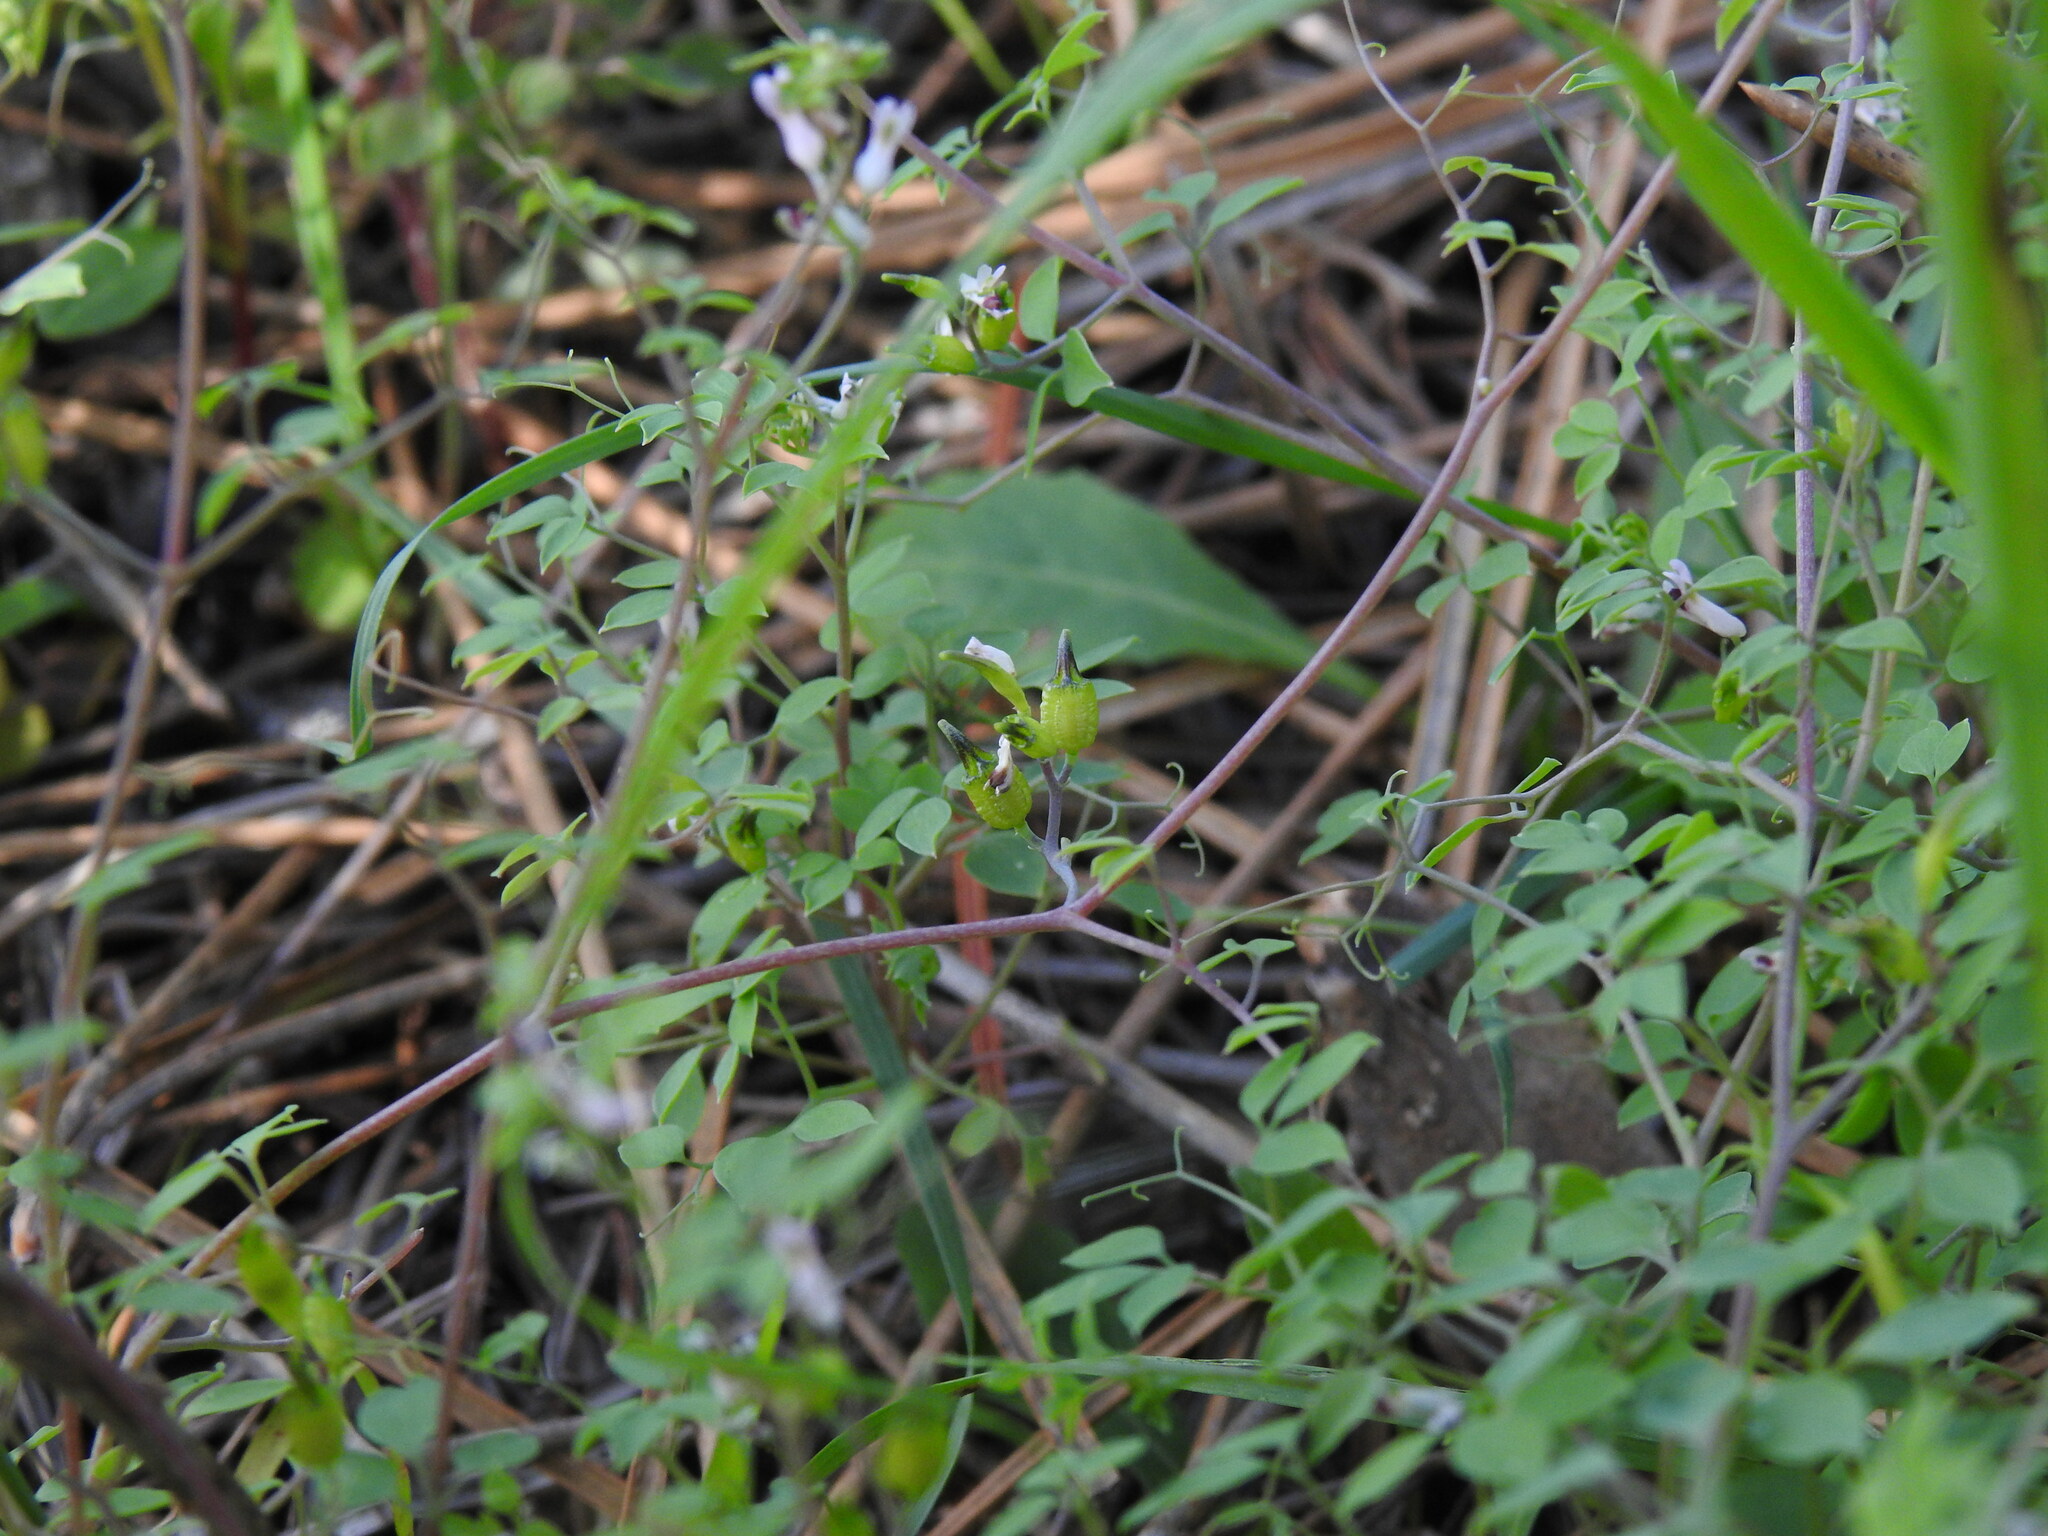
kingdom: Plantae
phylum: Tracheophyta
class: Magnoliopsida
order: Ranunculales
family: Papaveraceae
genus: Ceratocapnos
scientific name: Ceratocapnos heterocarpa
